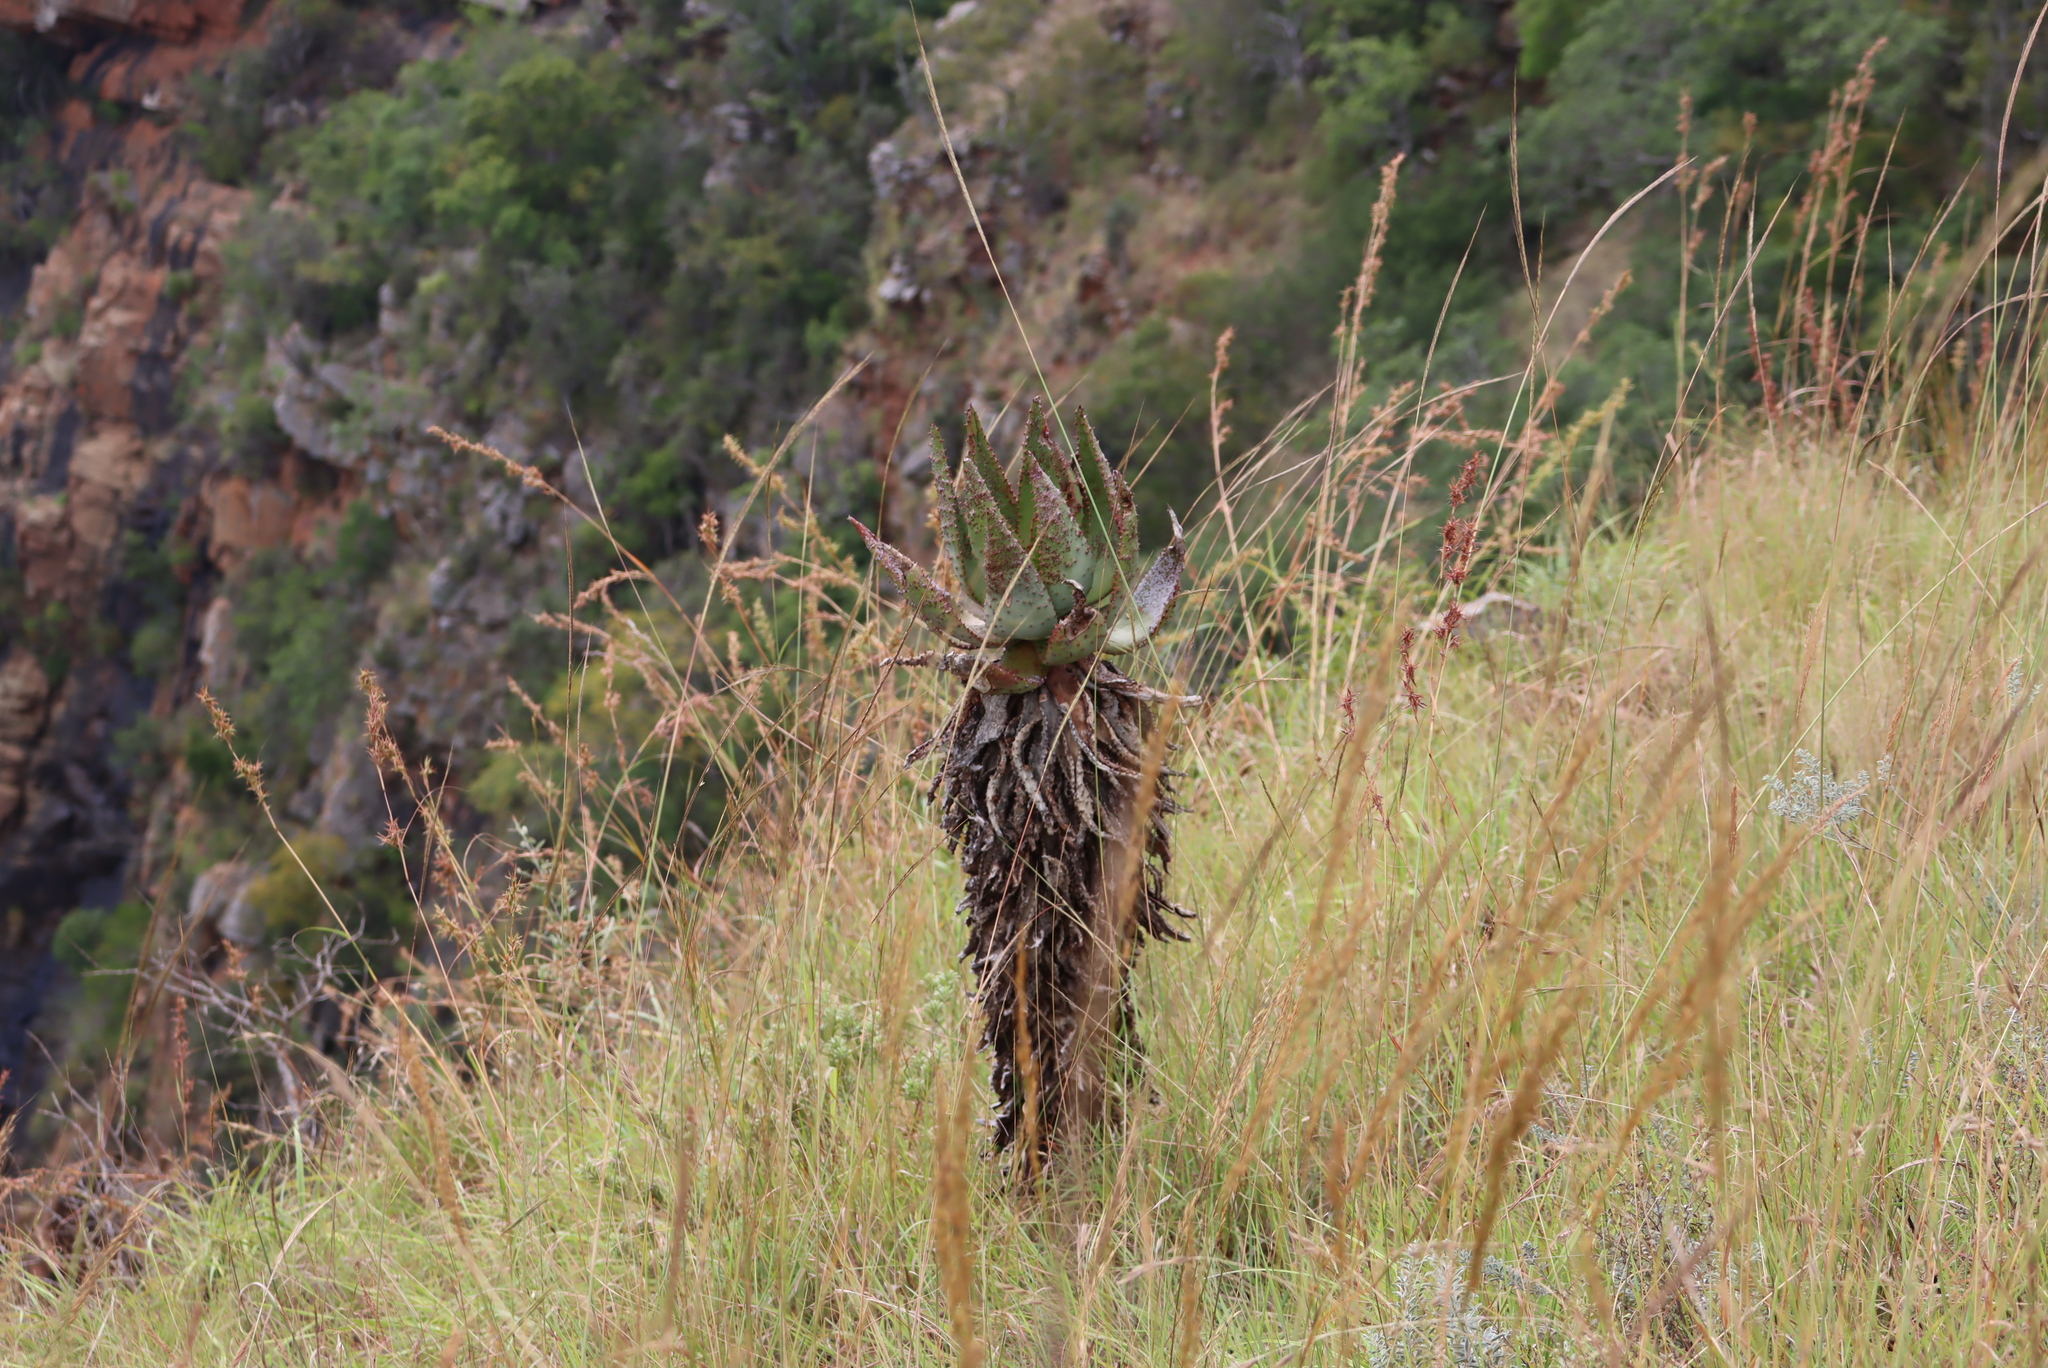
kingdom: Plantae
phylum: Tracheophyta
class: Liliopsida
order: Asparagales
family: Asphodelaceae
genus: Aloe
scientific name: Aloe marlothii
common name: Flat-flowered aloe
